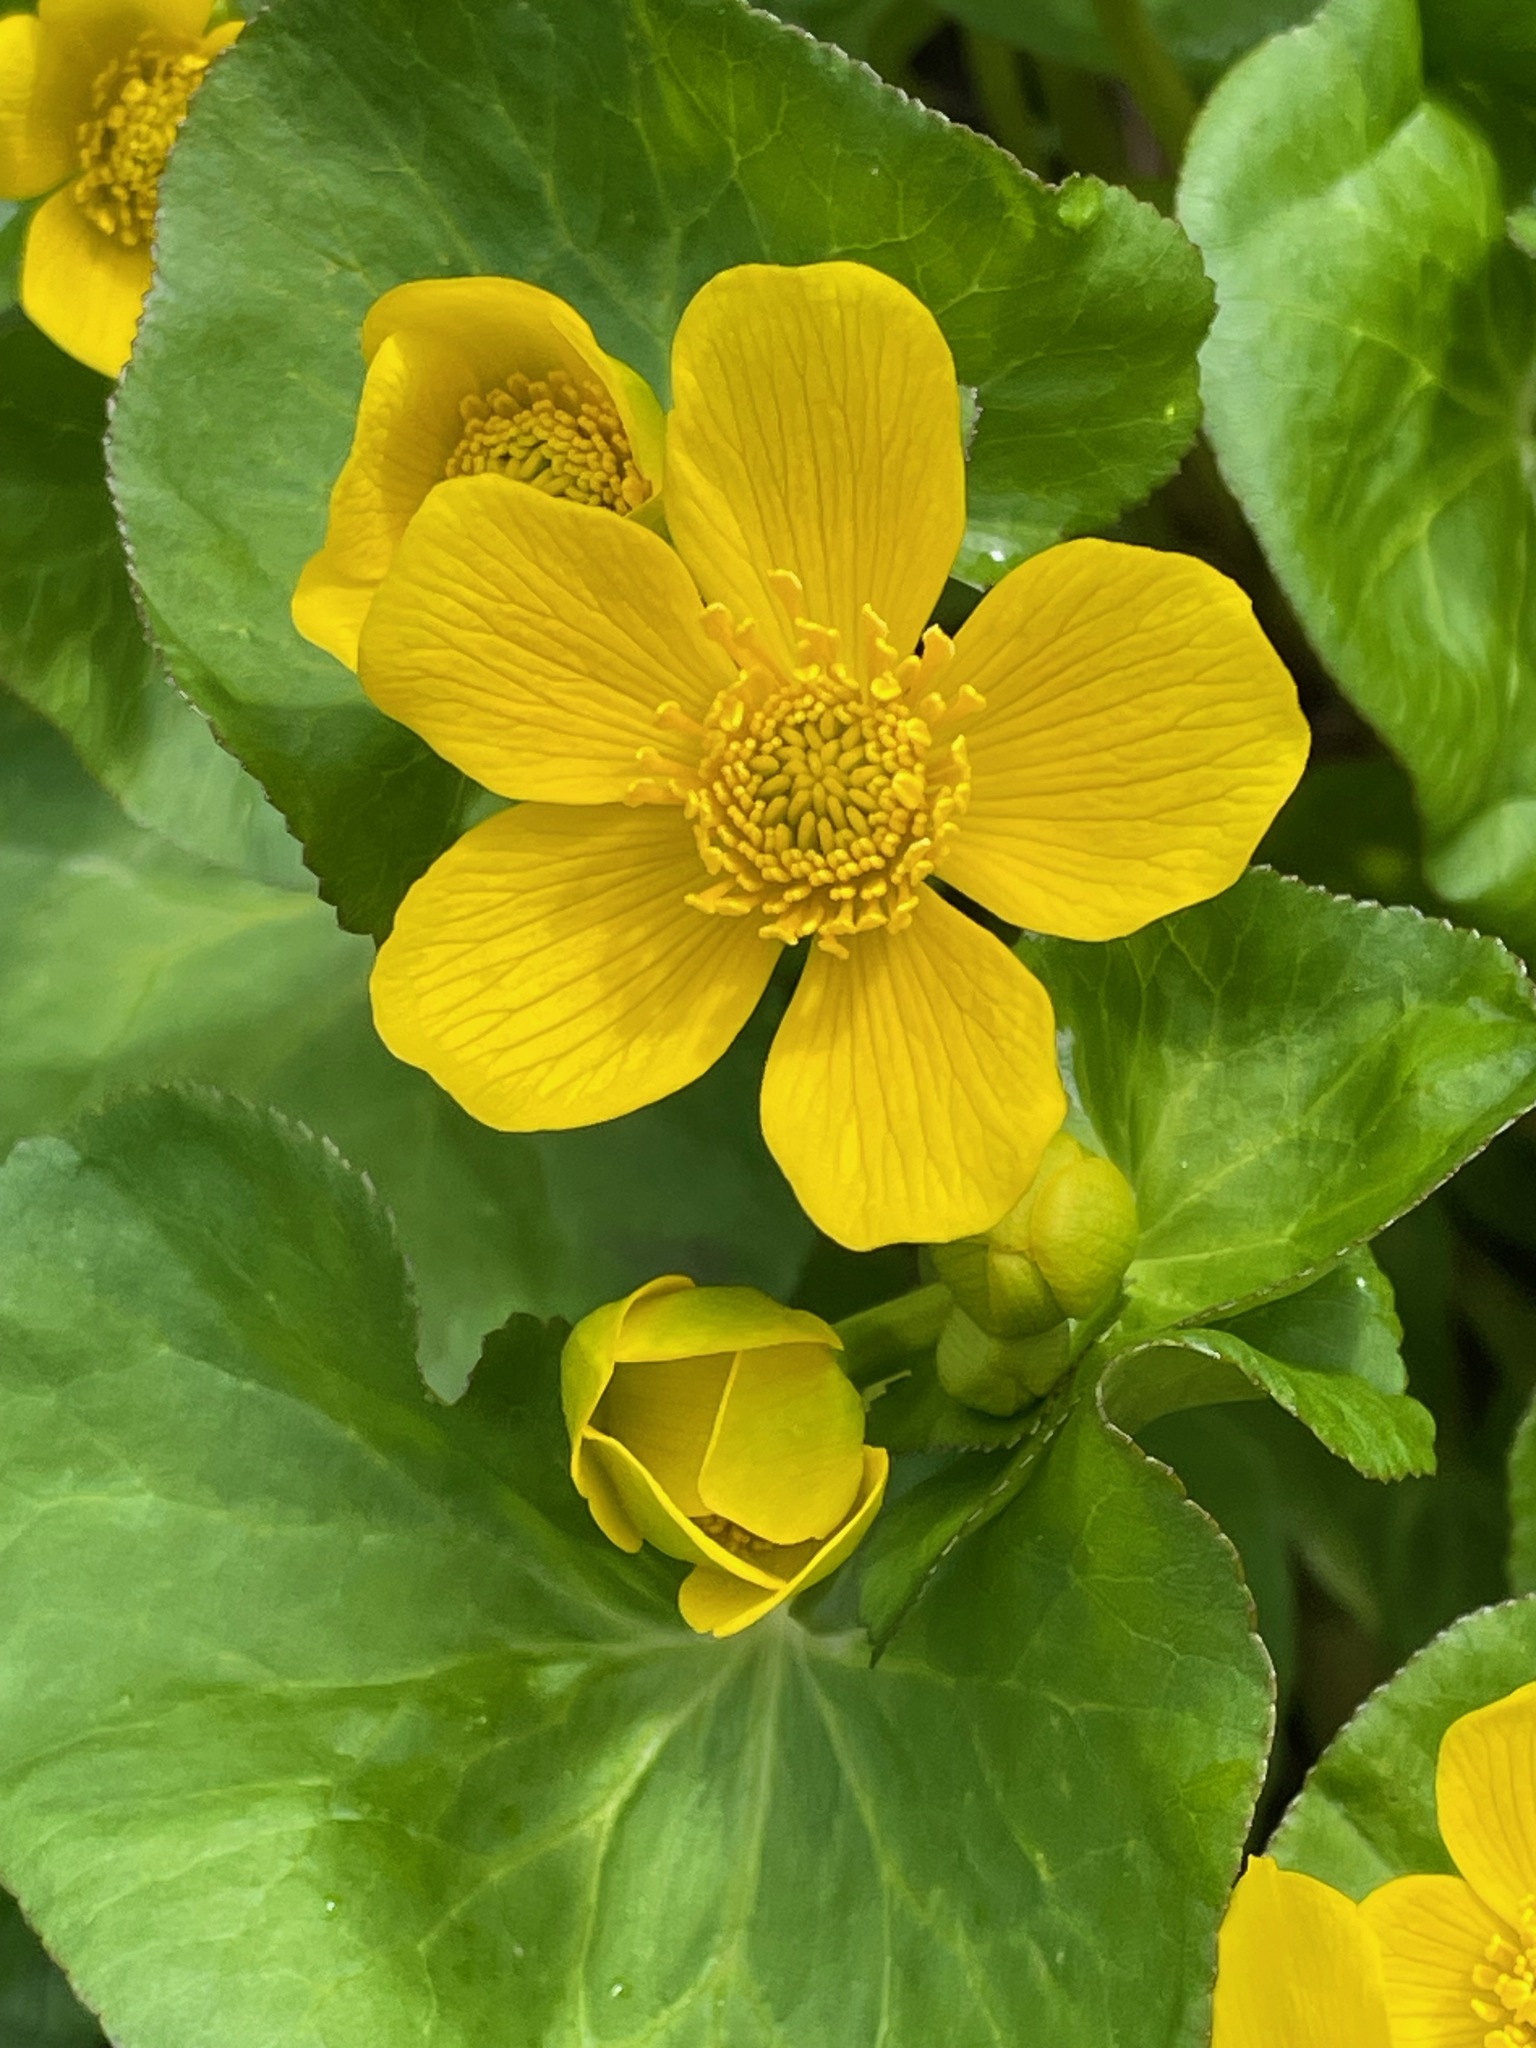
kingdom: Plantae
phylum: Tracheophyta
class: Magnoliopsida
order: Ranunculales
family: Ranunculaceae
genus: Caltha
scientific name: Caltha palustris
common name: Marsh marigold
